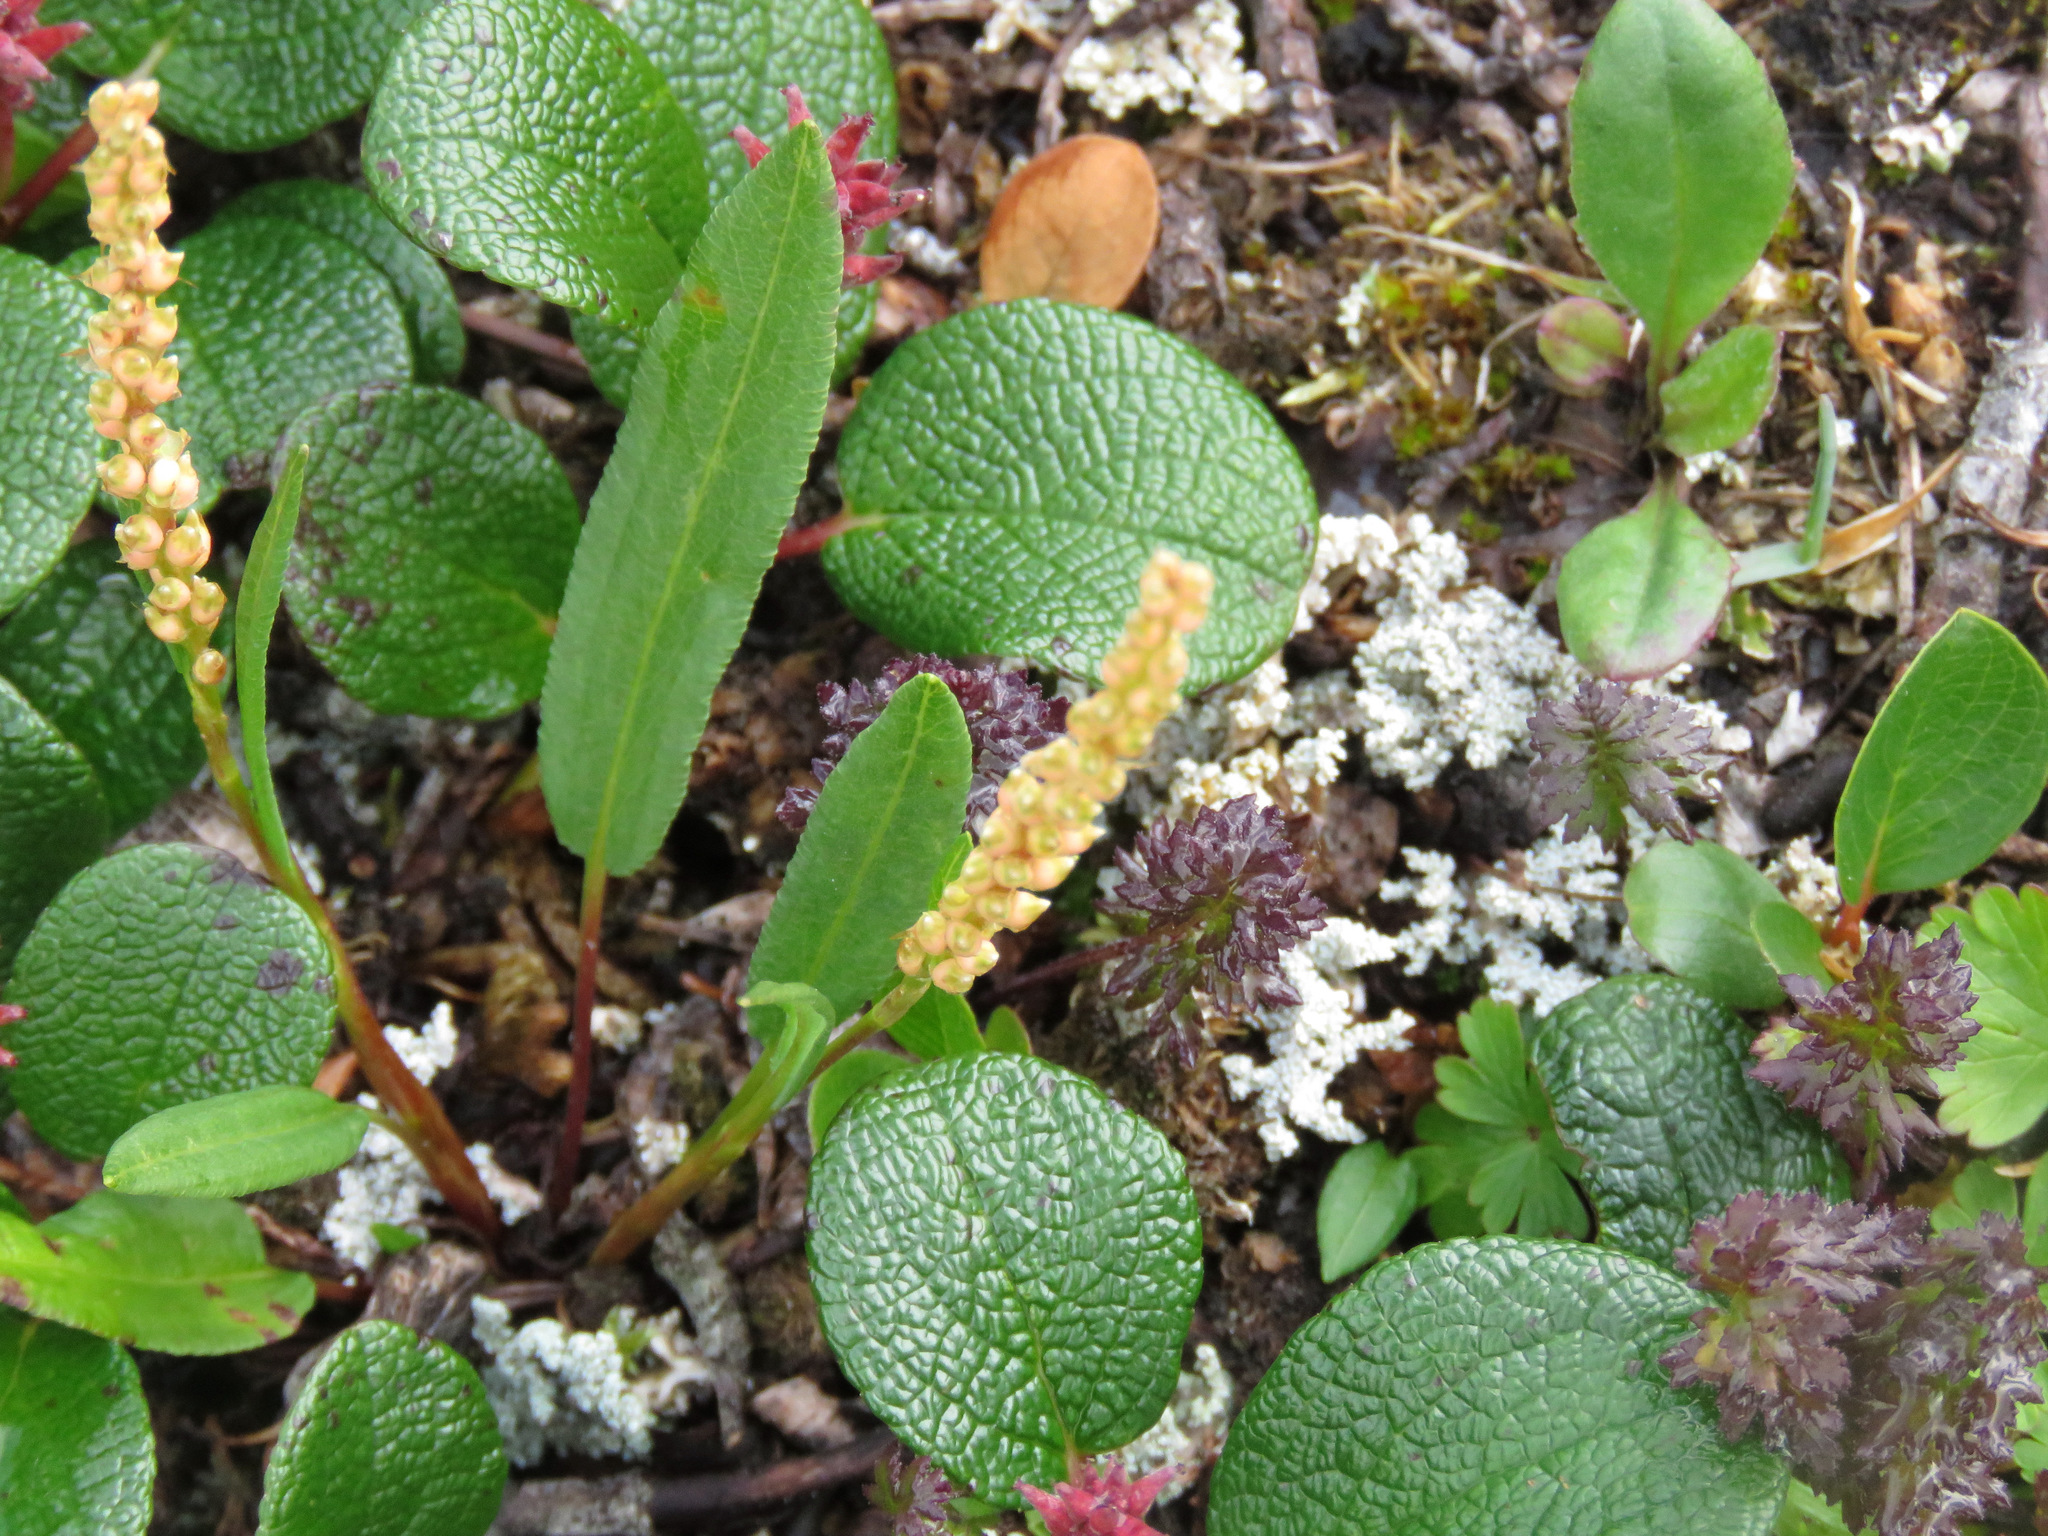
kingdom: Plantae
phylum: Tracheophyta
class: Magnoliopsida
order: Caryophyllales
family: Polygonaceae
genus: Bistorta
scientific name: Bistorta vivipara
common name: Alpine bistort
